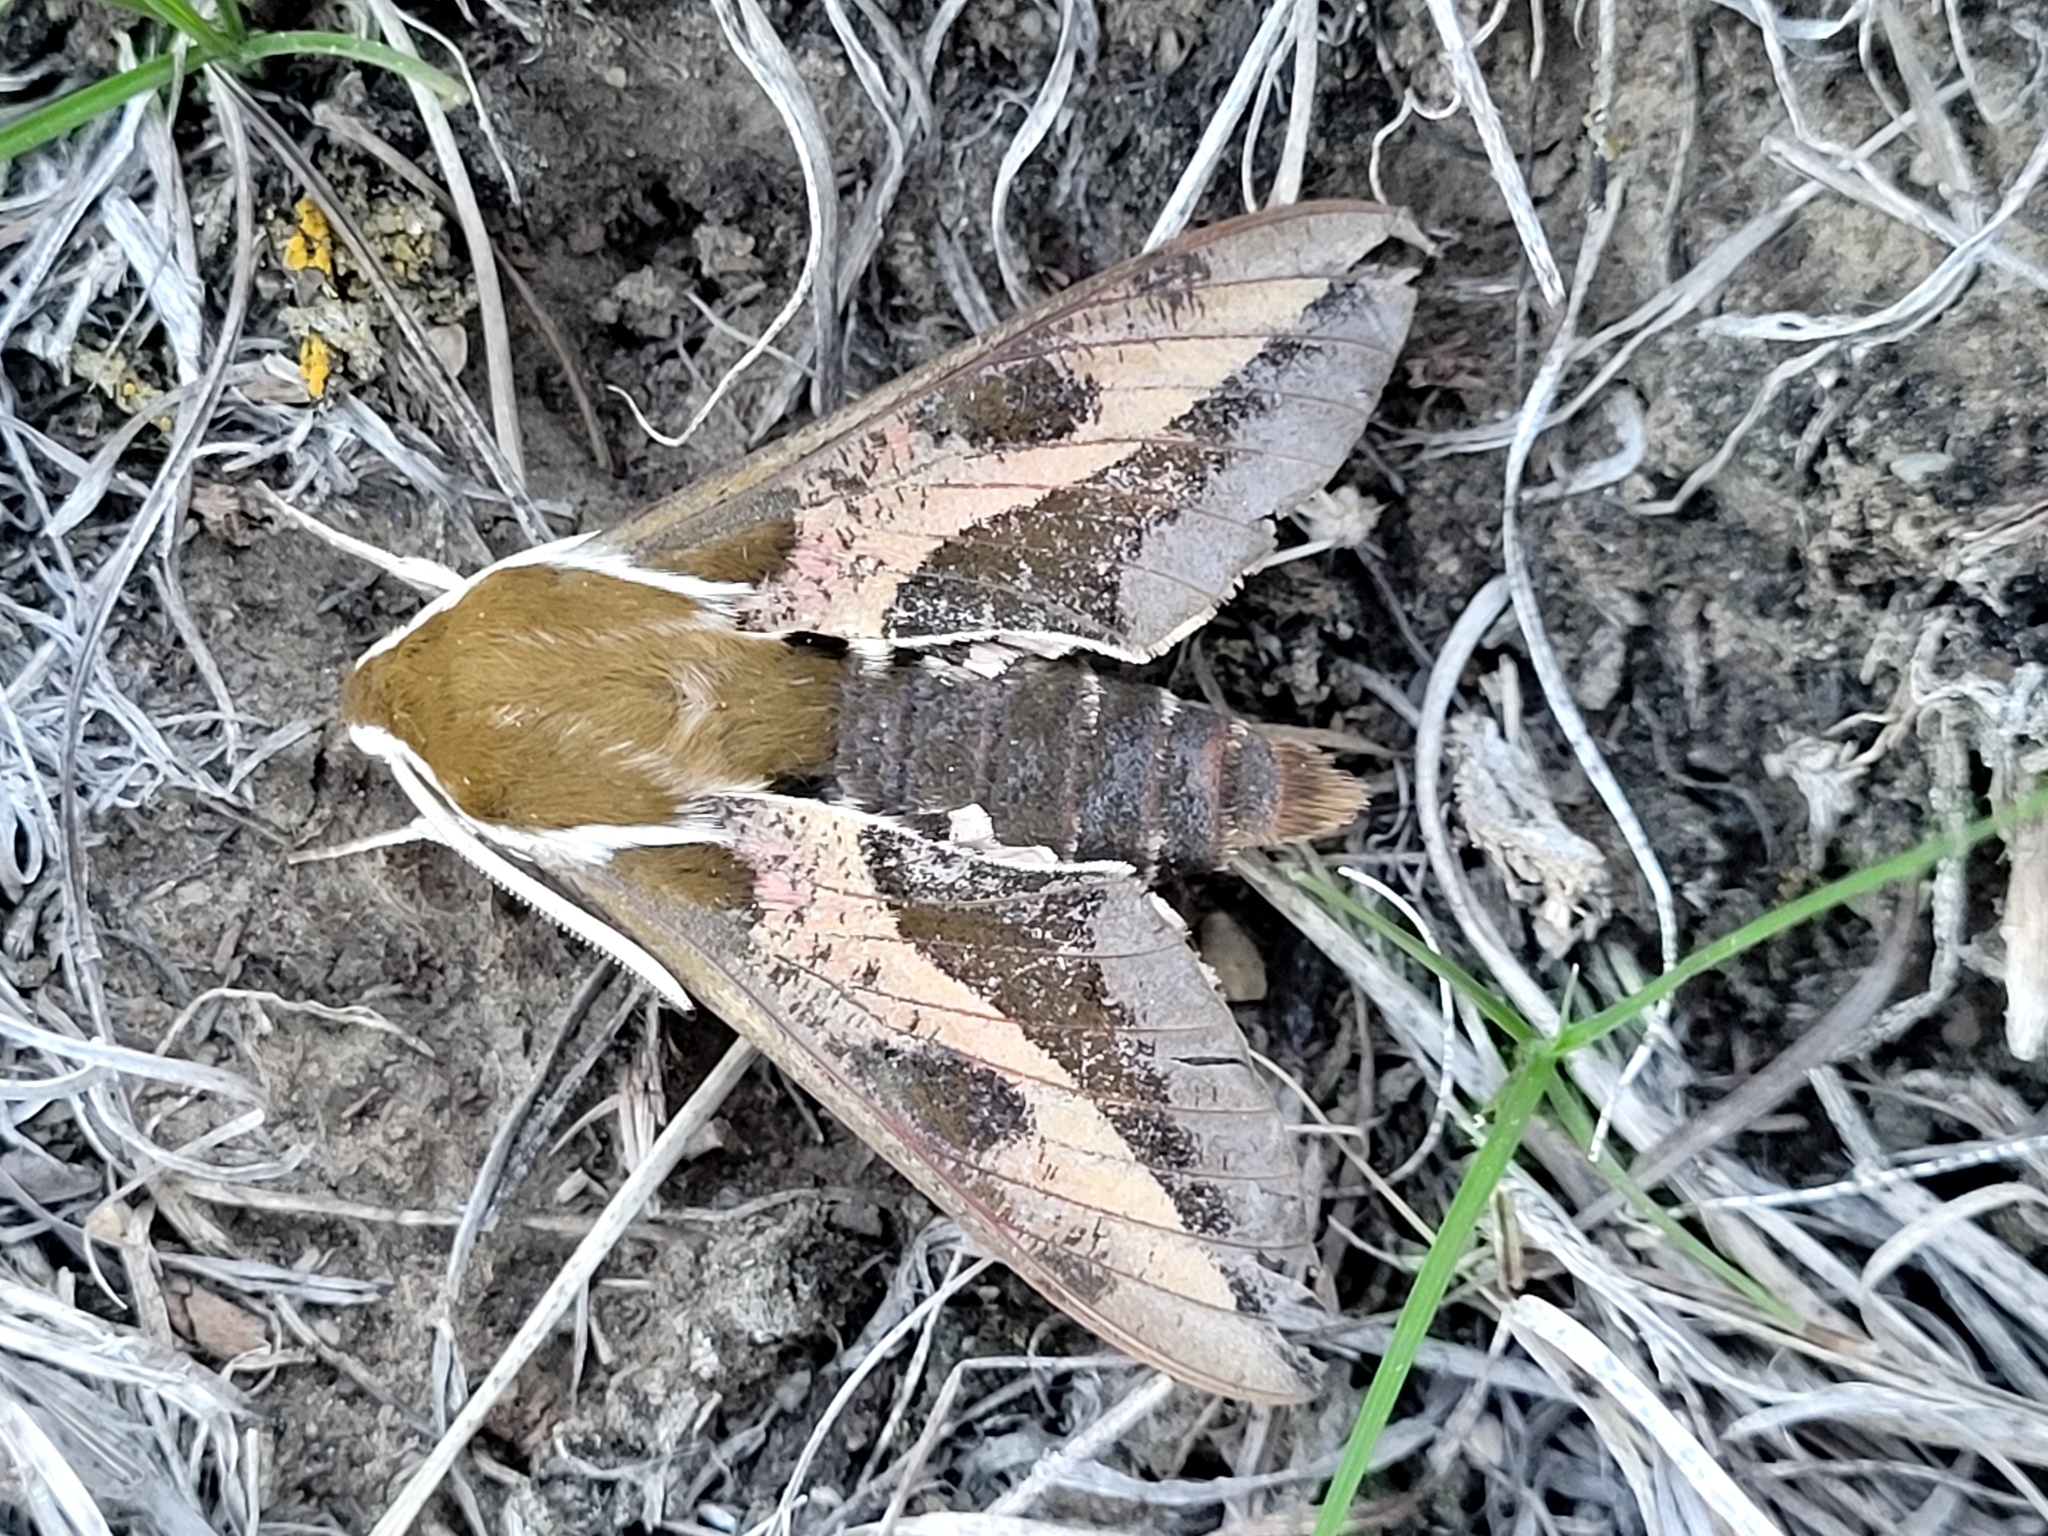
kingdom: Animalia
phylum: Arthropoda
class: Insecta
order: Lepidoptera
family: Sphingidae
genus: Hyles
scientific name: Hyles euphorbiae
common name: Spurge hawk-moth
